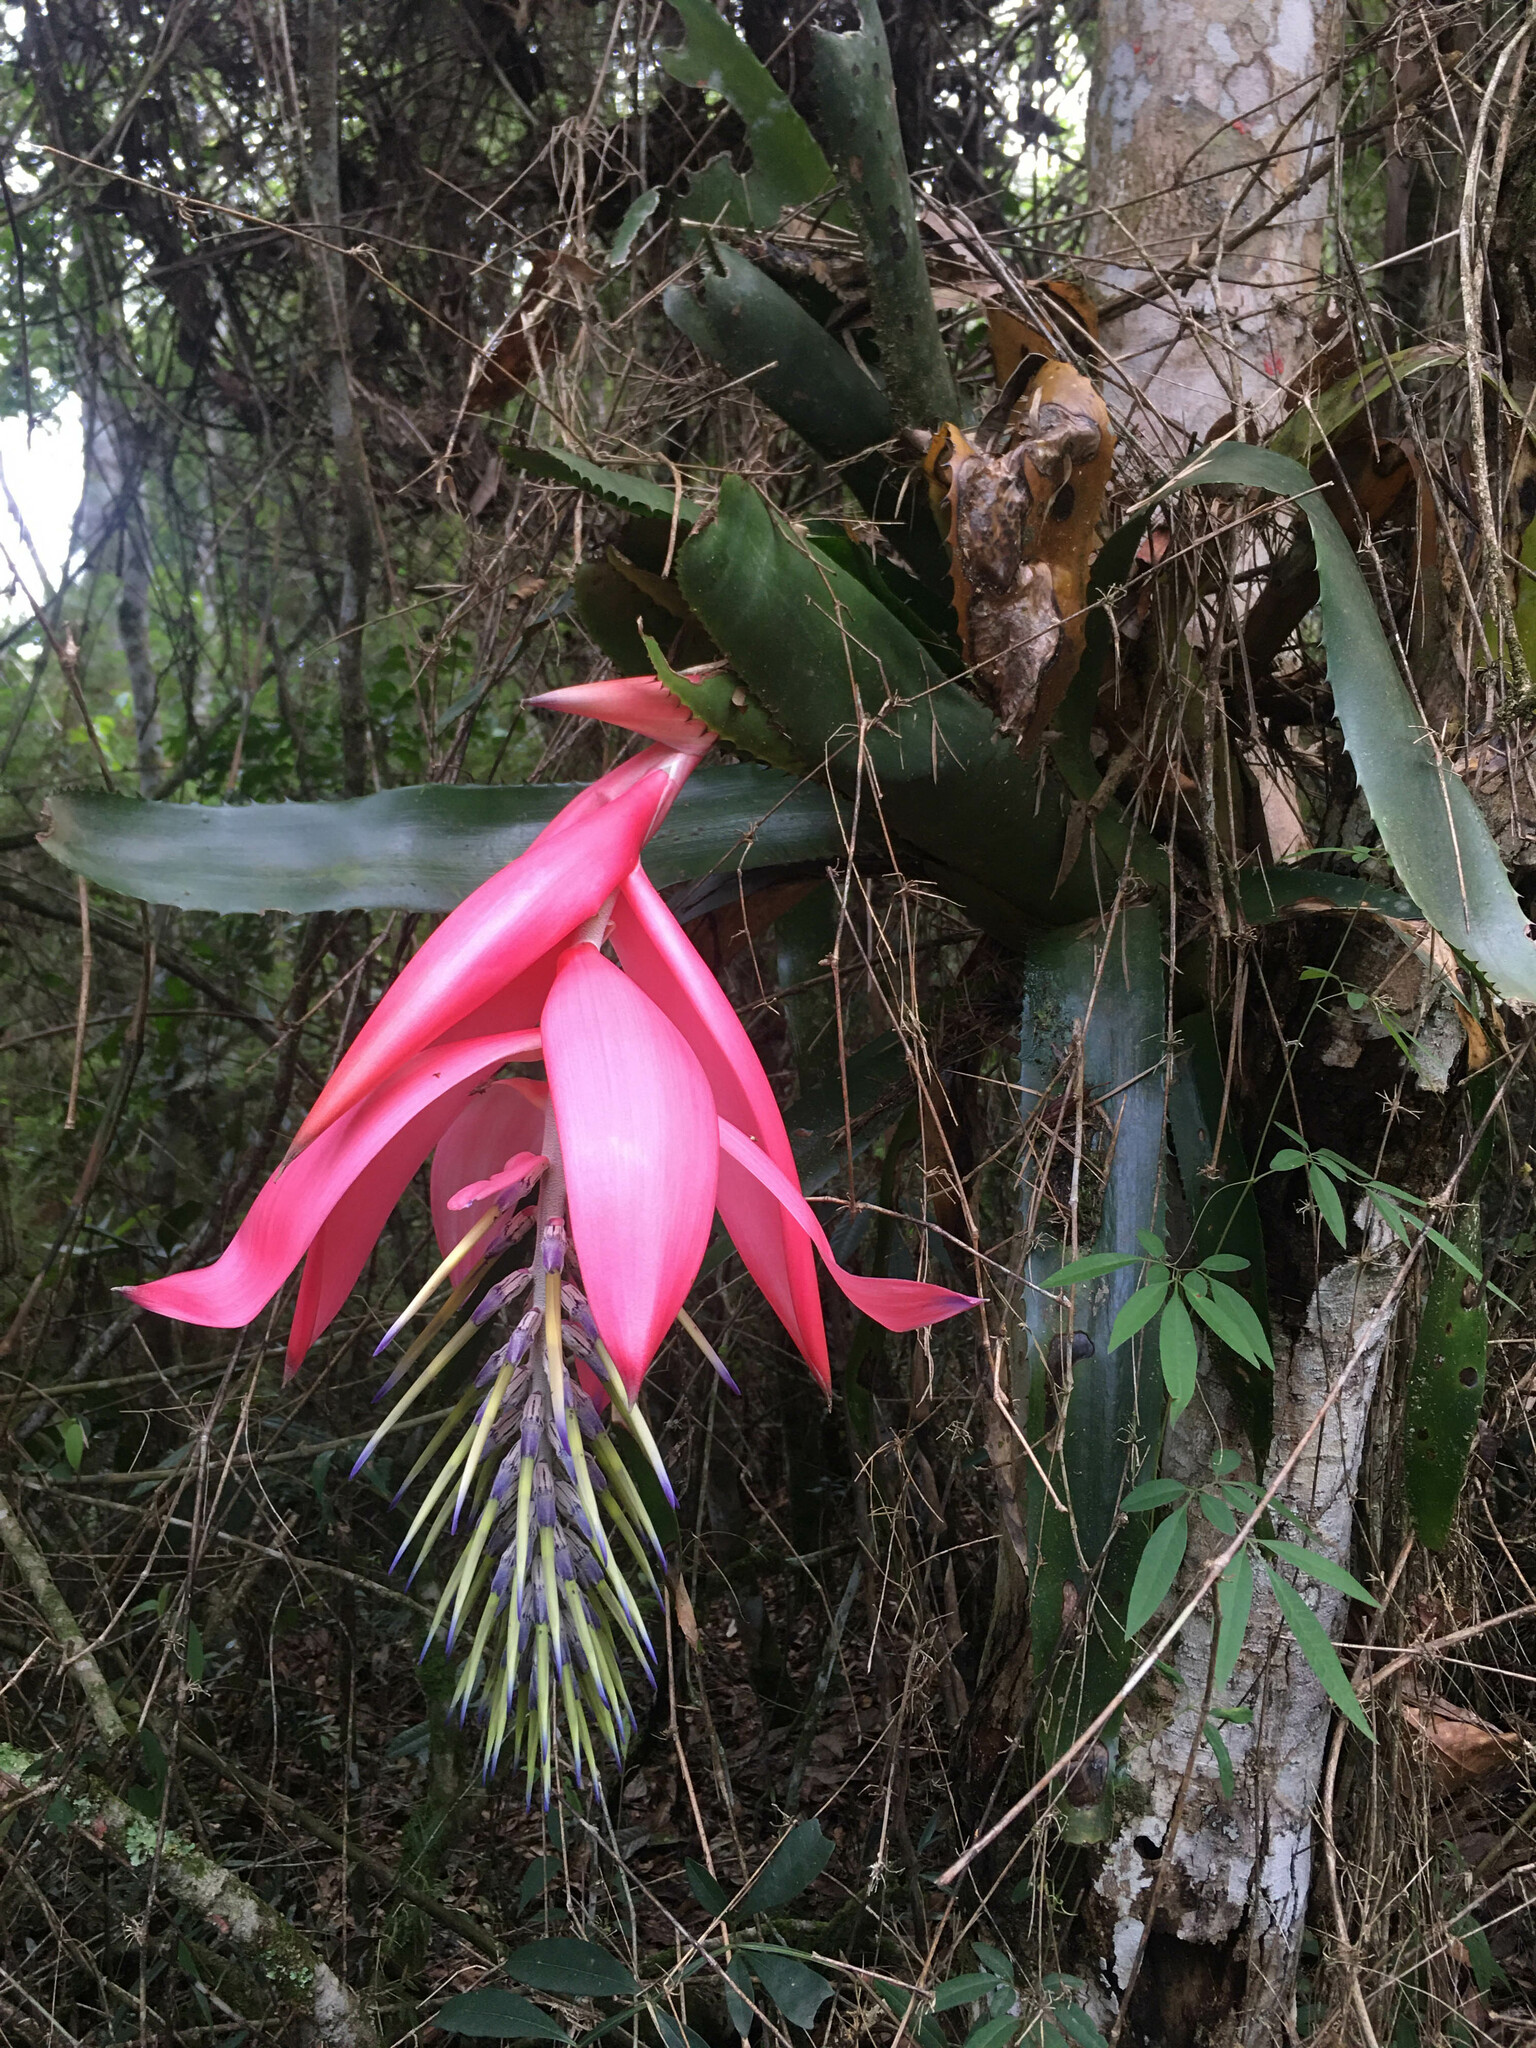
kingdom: Plantae
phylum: Tracheophyta
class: Liliopsida
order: Poales
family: Bromeliaceae
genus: Billbergia
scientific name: Billbergia alfonsi-joannis
